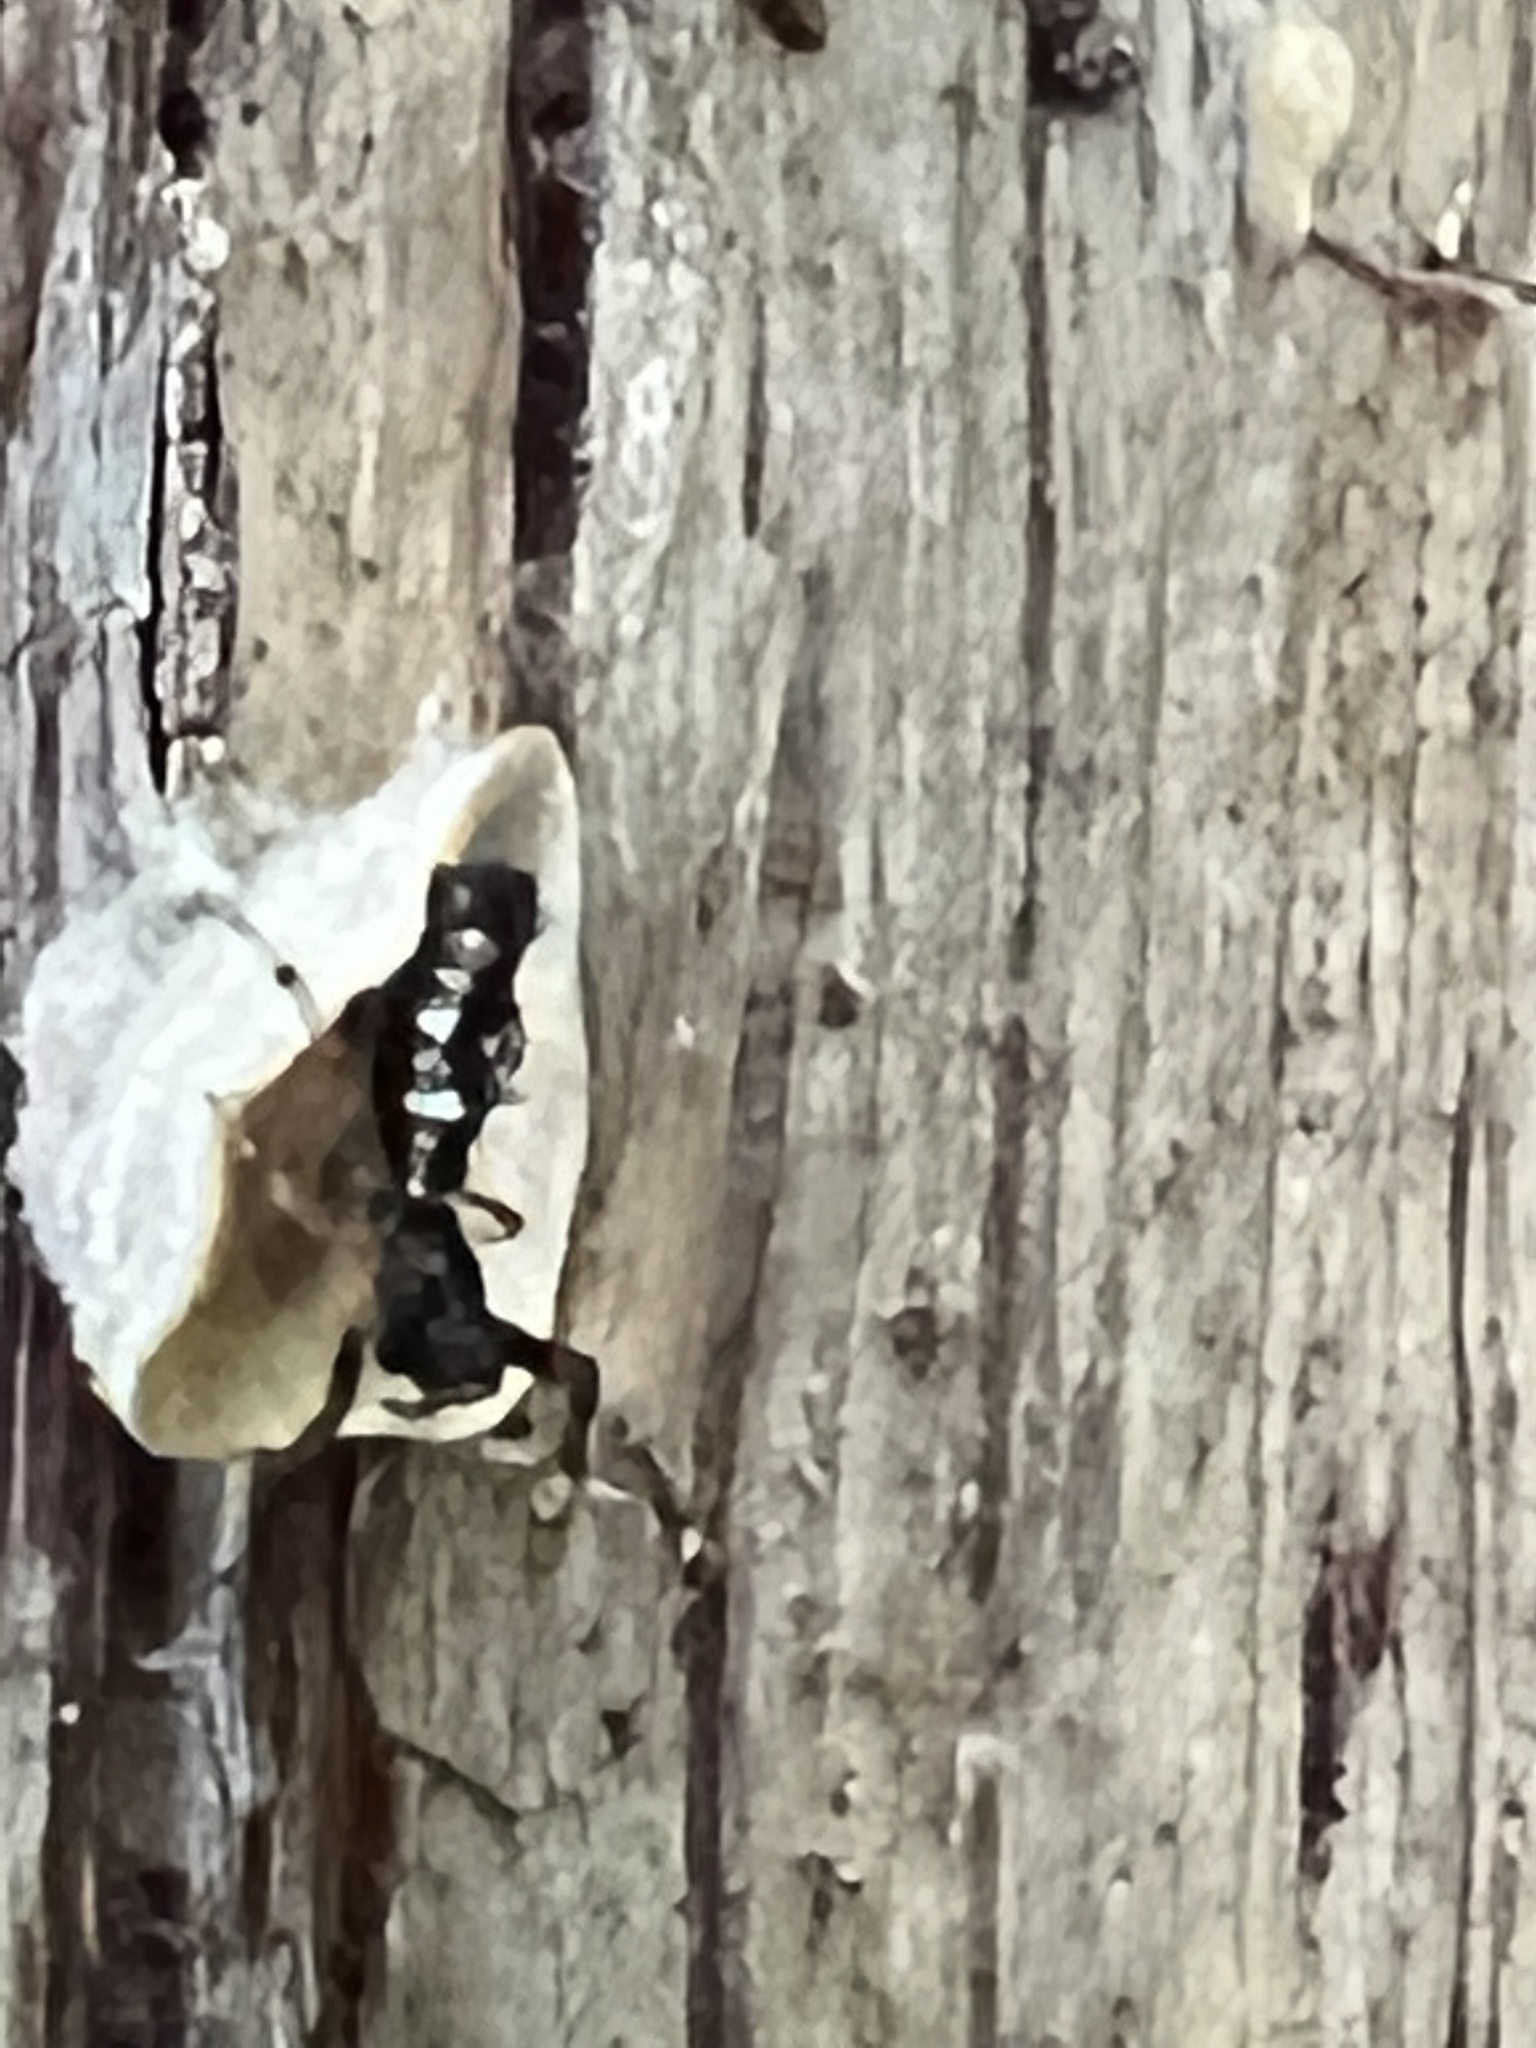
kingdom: Animalia
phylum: Arthropoda
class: Arachnida
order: Araneae
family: Araneidae
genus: Micrathena
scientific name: Micrathena gracilis
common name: Orb weavers
